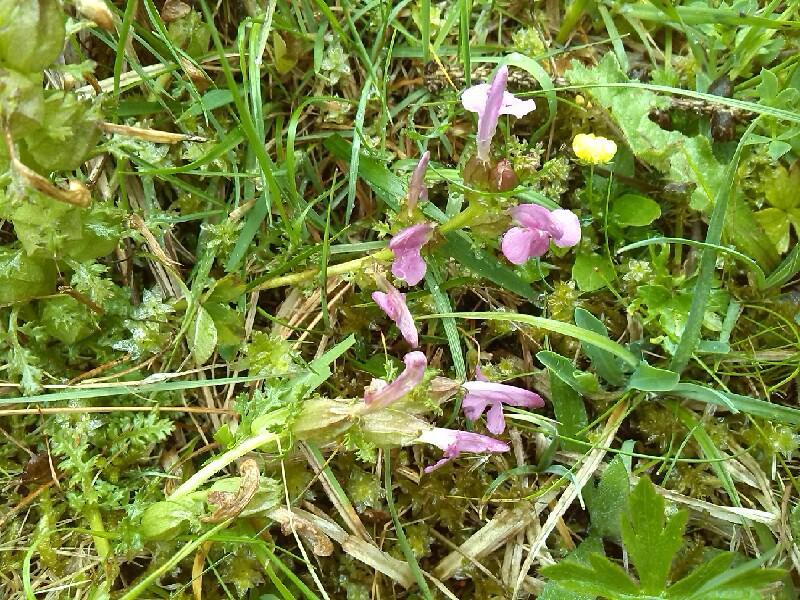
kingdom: Plantae
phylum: Tracheophyta
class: Magnoliopsida
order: Lamiales
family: Orobanchaceae
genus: Pedicularis
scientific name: Pedicularis sylvatica
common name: Lousewort
